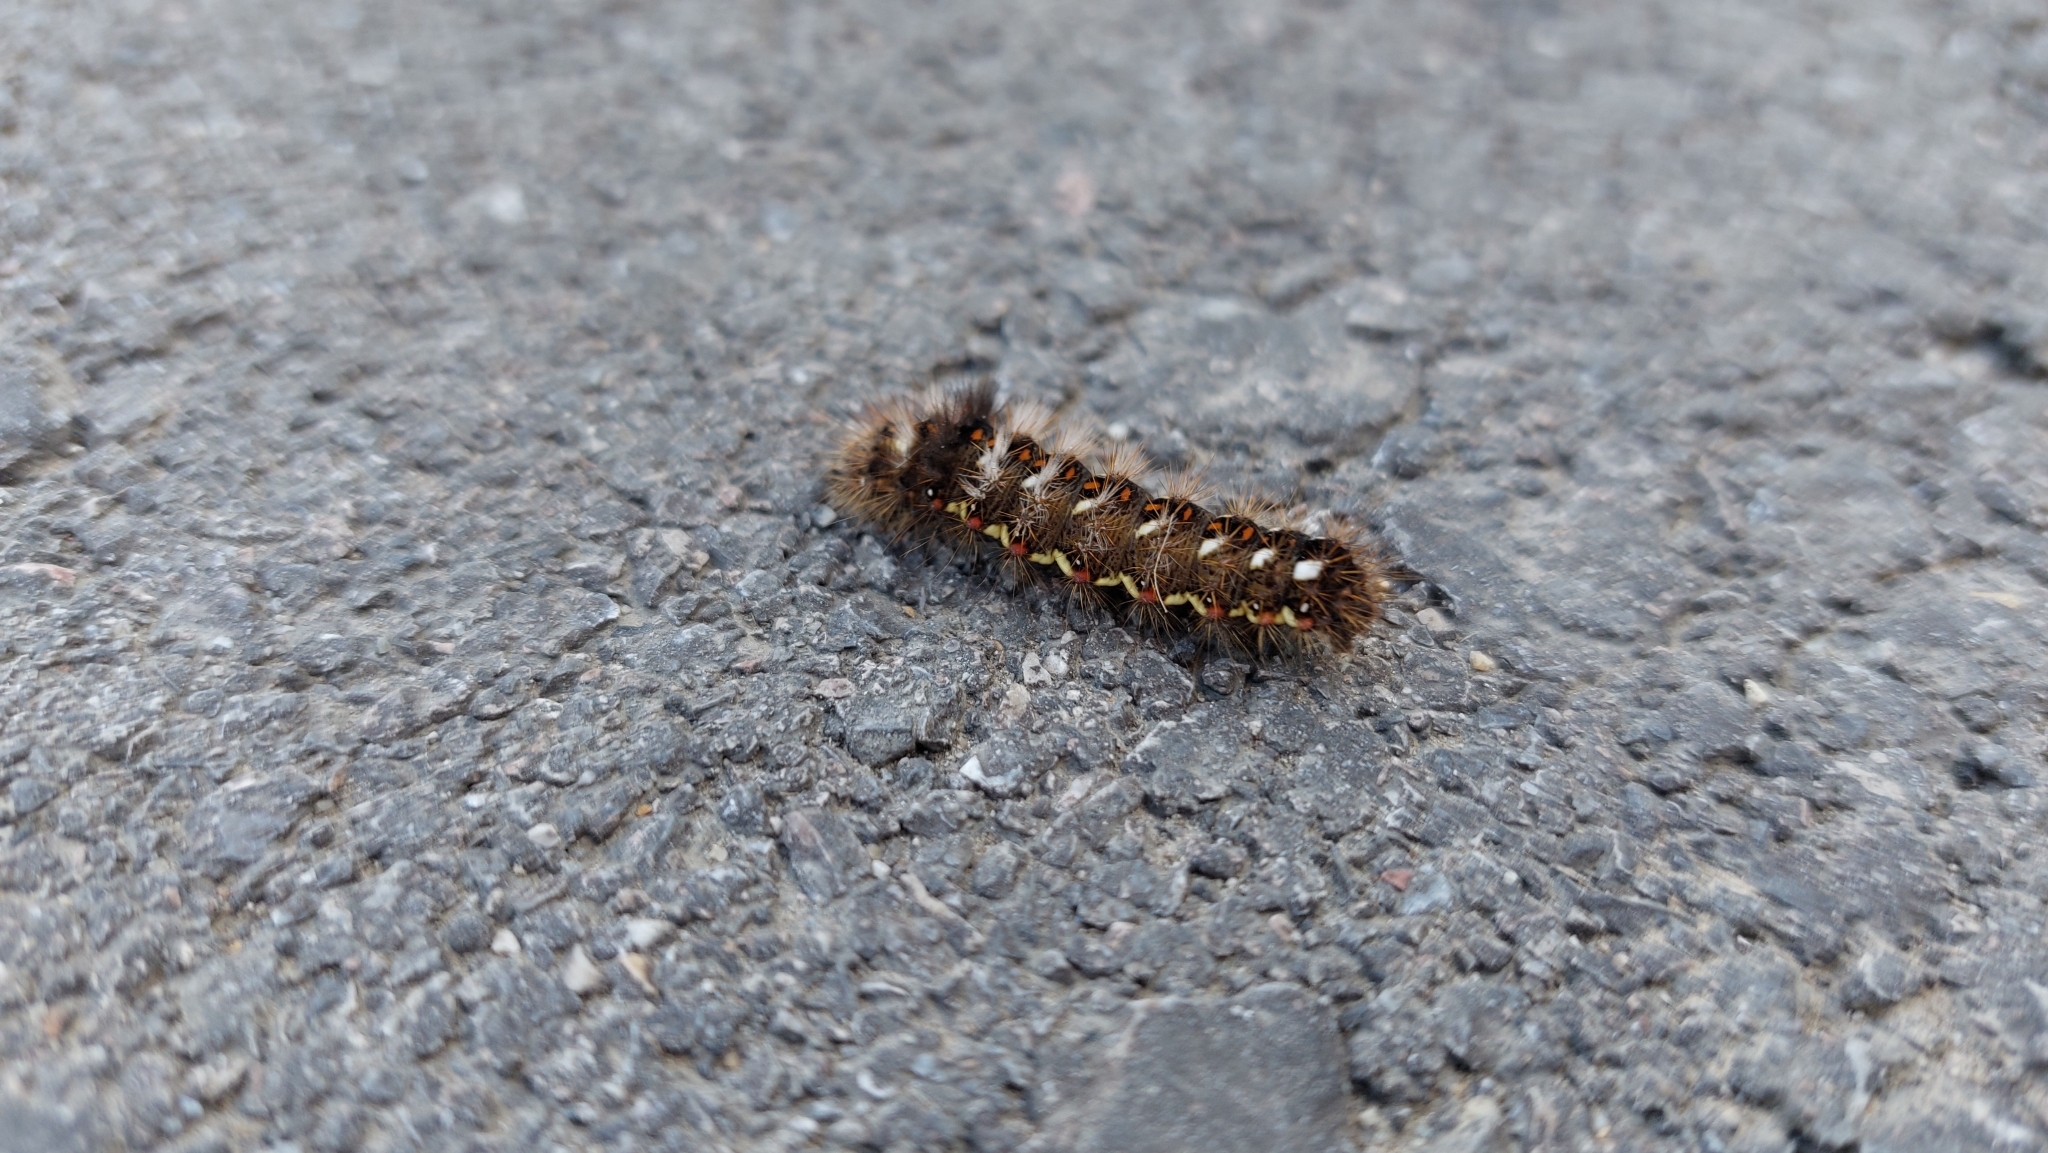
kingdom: Animalia
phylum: Arthropoda
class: Insecta
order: Lepidoptera
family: Noctuidae
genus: Acronicta
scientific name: Acronicta rumicis
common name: Knot grass
